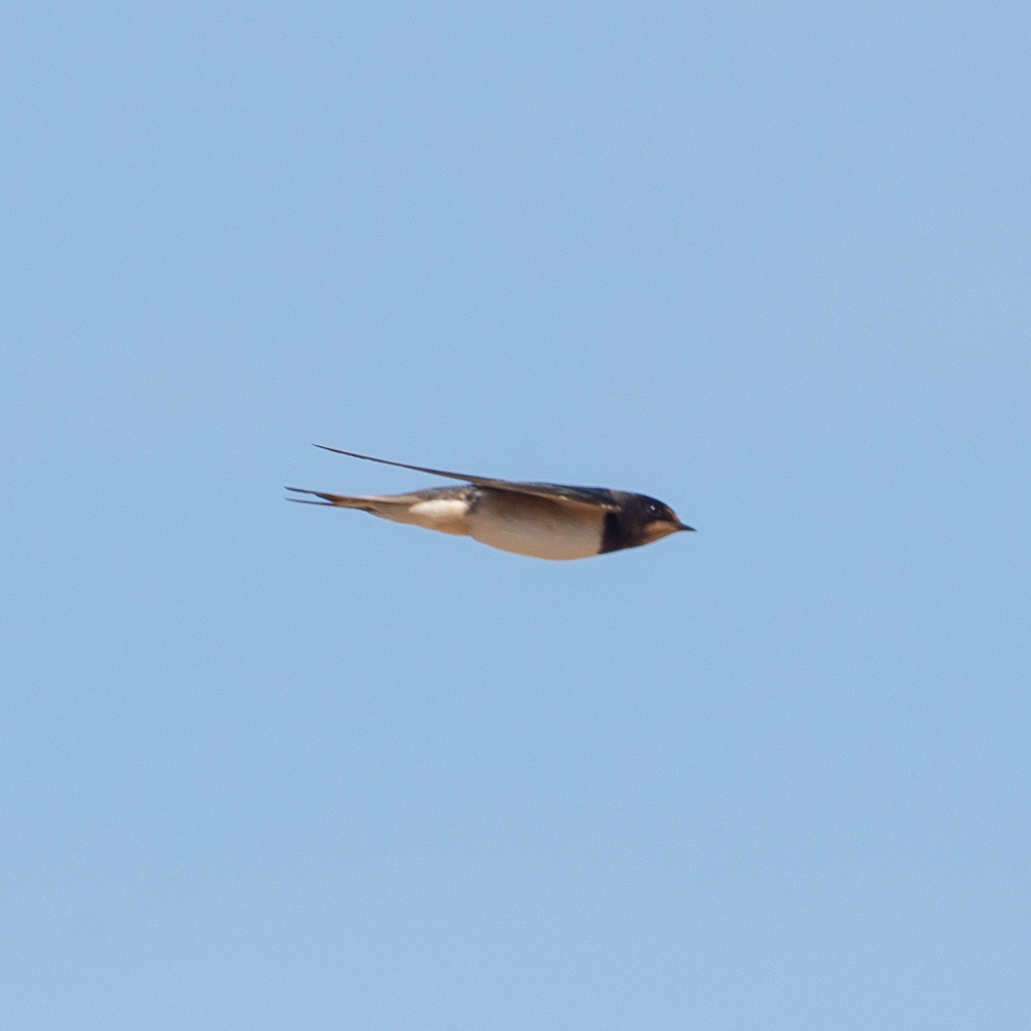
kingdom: Animalia
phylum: Chordata
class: Aves
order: Passeriformes
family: Hirundinidae
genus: Hirundo
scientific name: Hirundo rustica
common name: Barn swallow
